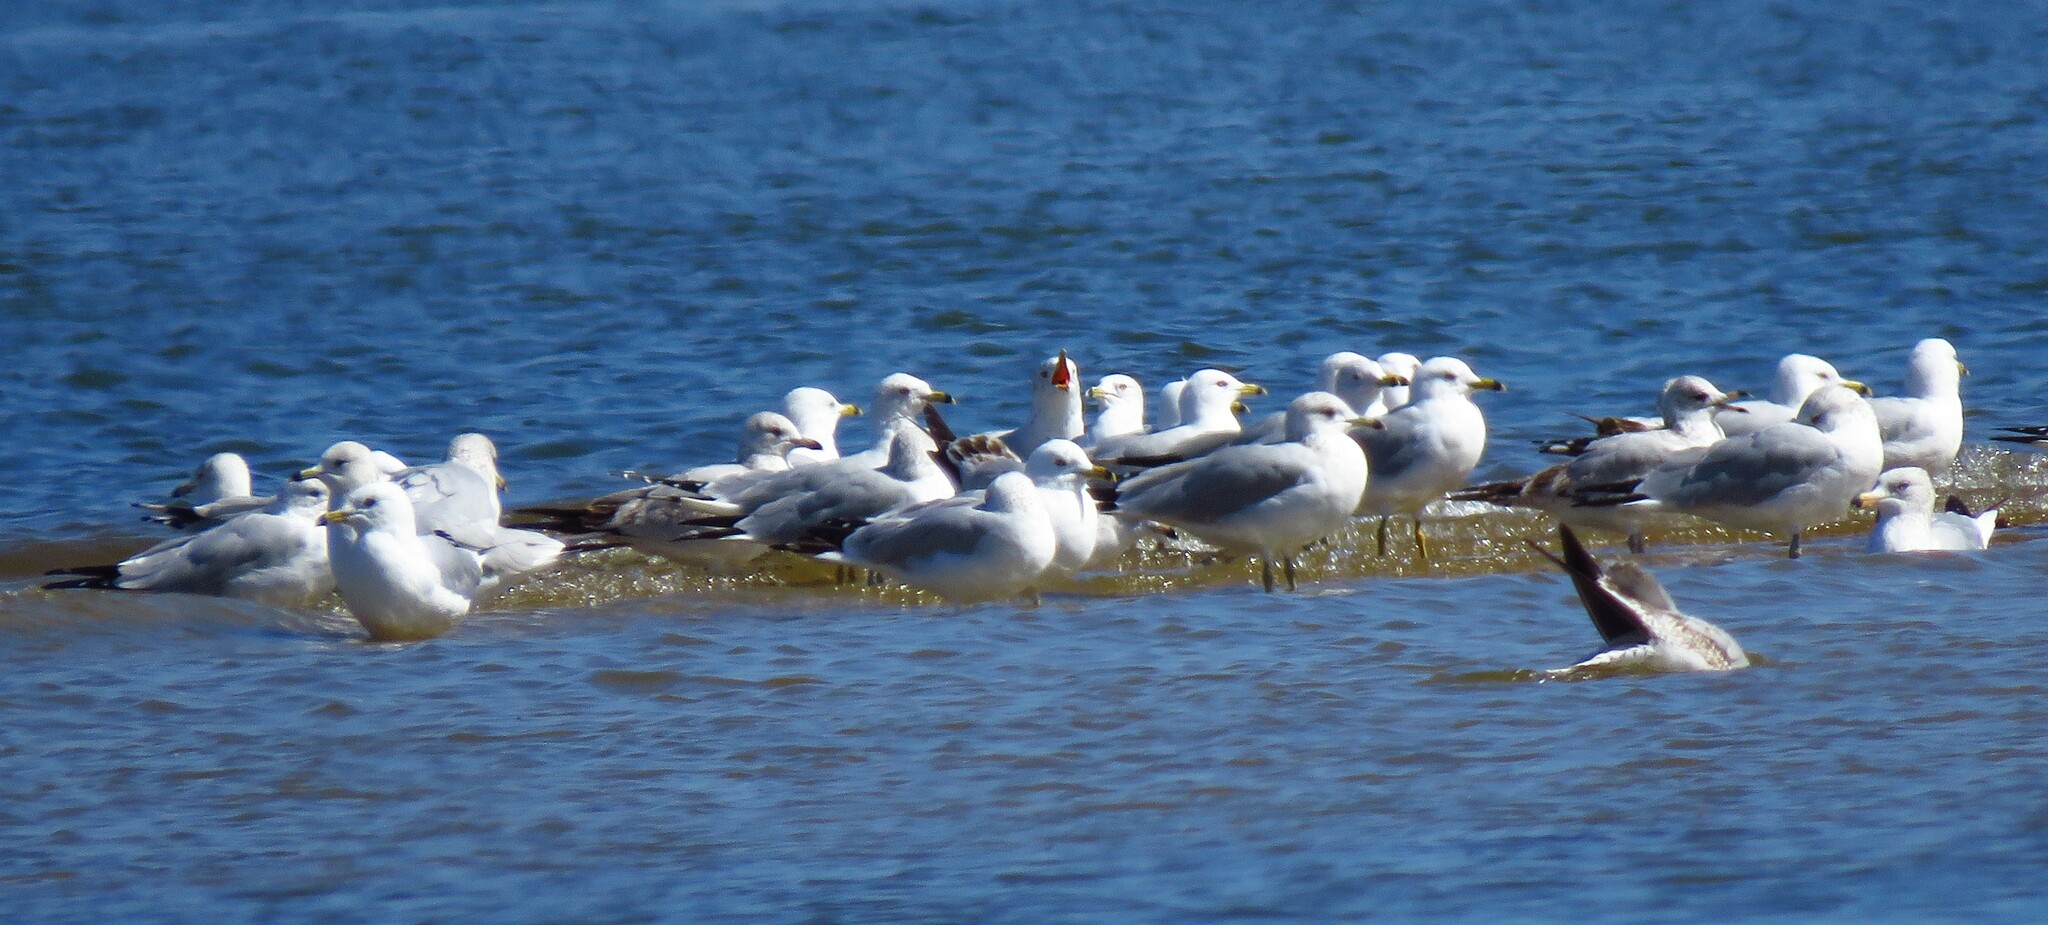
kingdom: Animalia
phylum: Chordata
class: Aves
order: Charadriiformes
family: Laridae
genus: Larus
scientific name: Larus delawarensis
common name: Ring-billed gull
